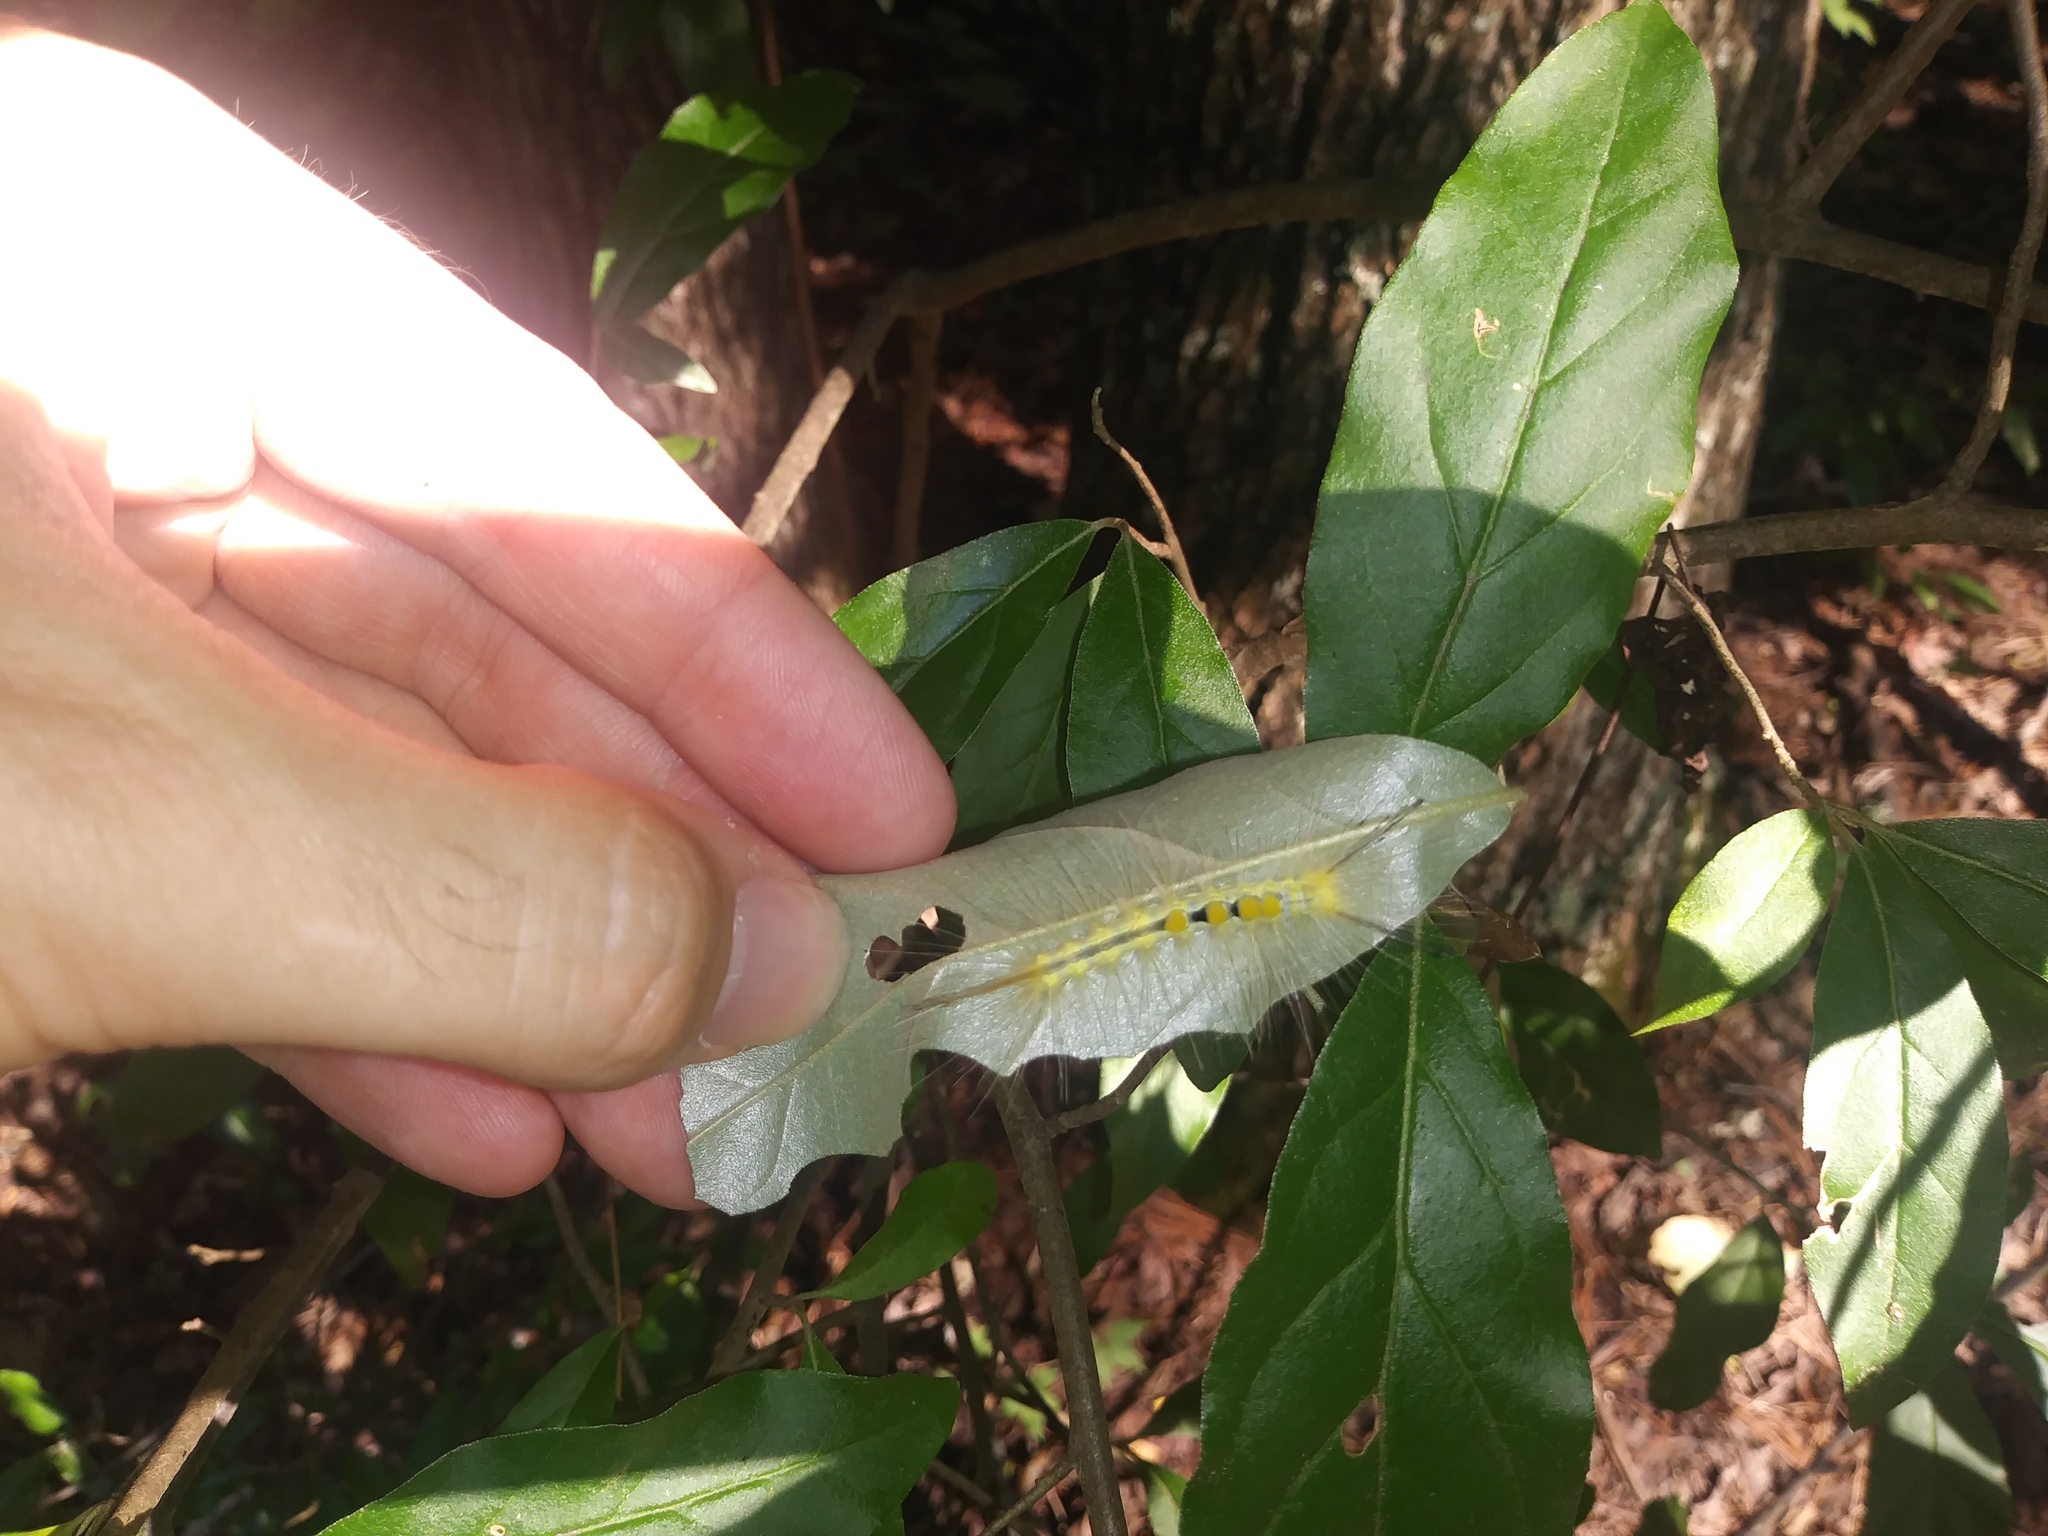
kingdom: Animalia
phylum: Arthropoda
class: Insecta
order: Lepidoptera
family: Erebidae
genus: Orgyia
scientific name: Orgyia definita
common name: Definite tussock moth
